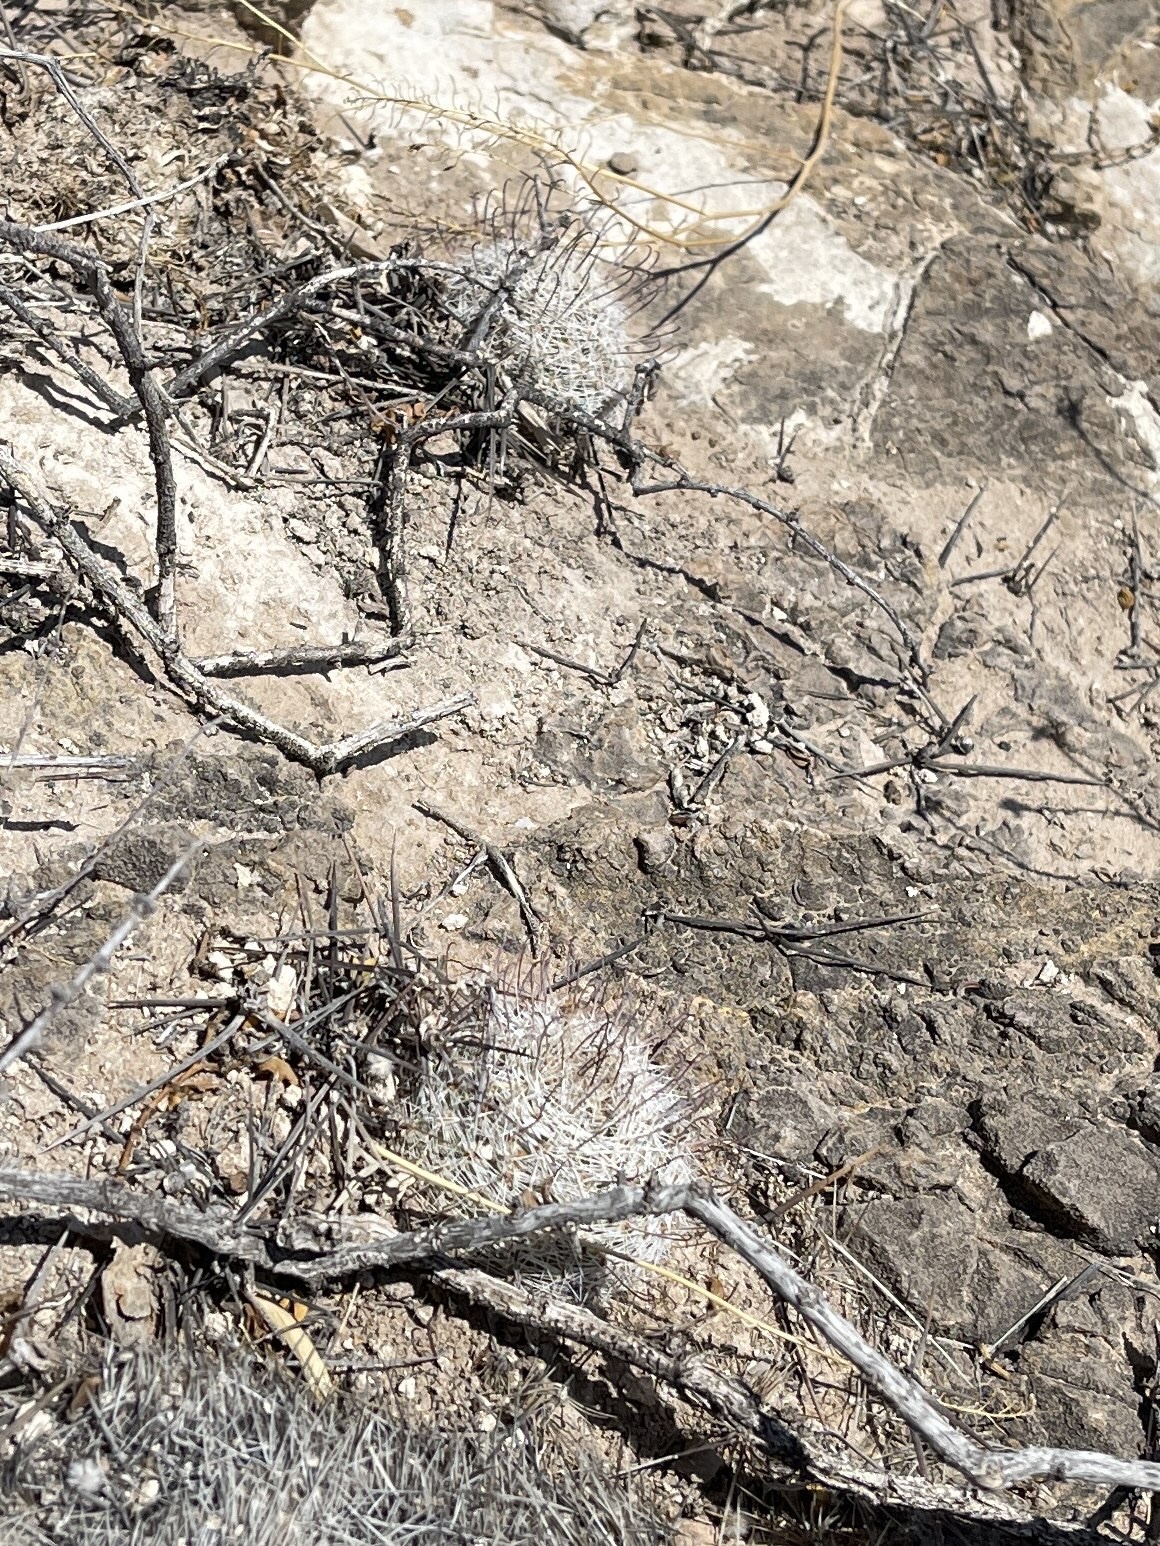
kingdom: Plantae
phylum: Tracheophyta
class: Magnoliopsida
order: Caryophyllales
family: Cactaceae
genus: Cochemiea
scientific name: Cochemiea grahamii
